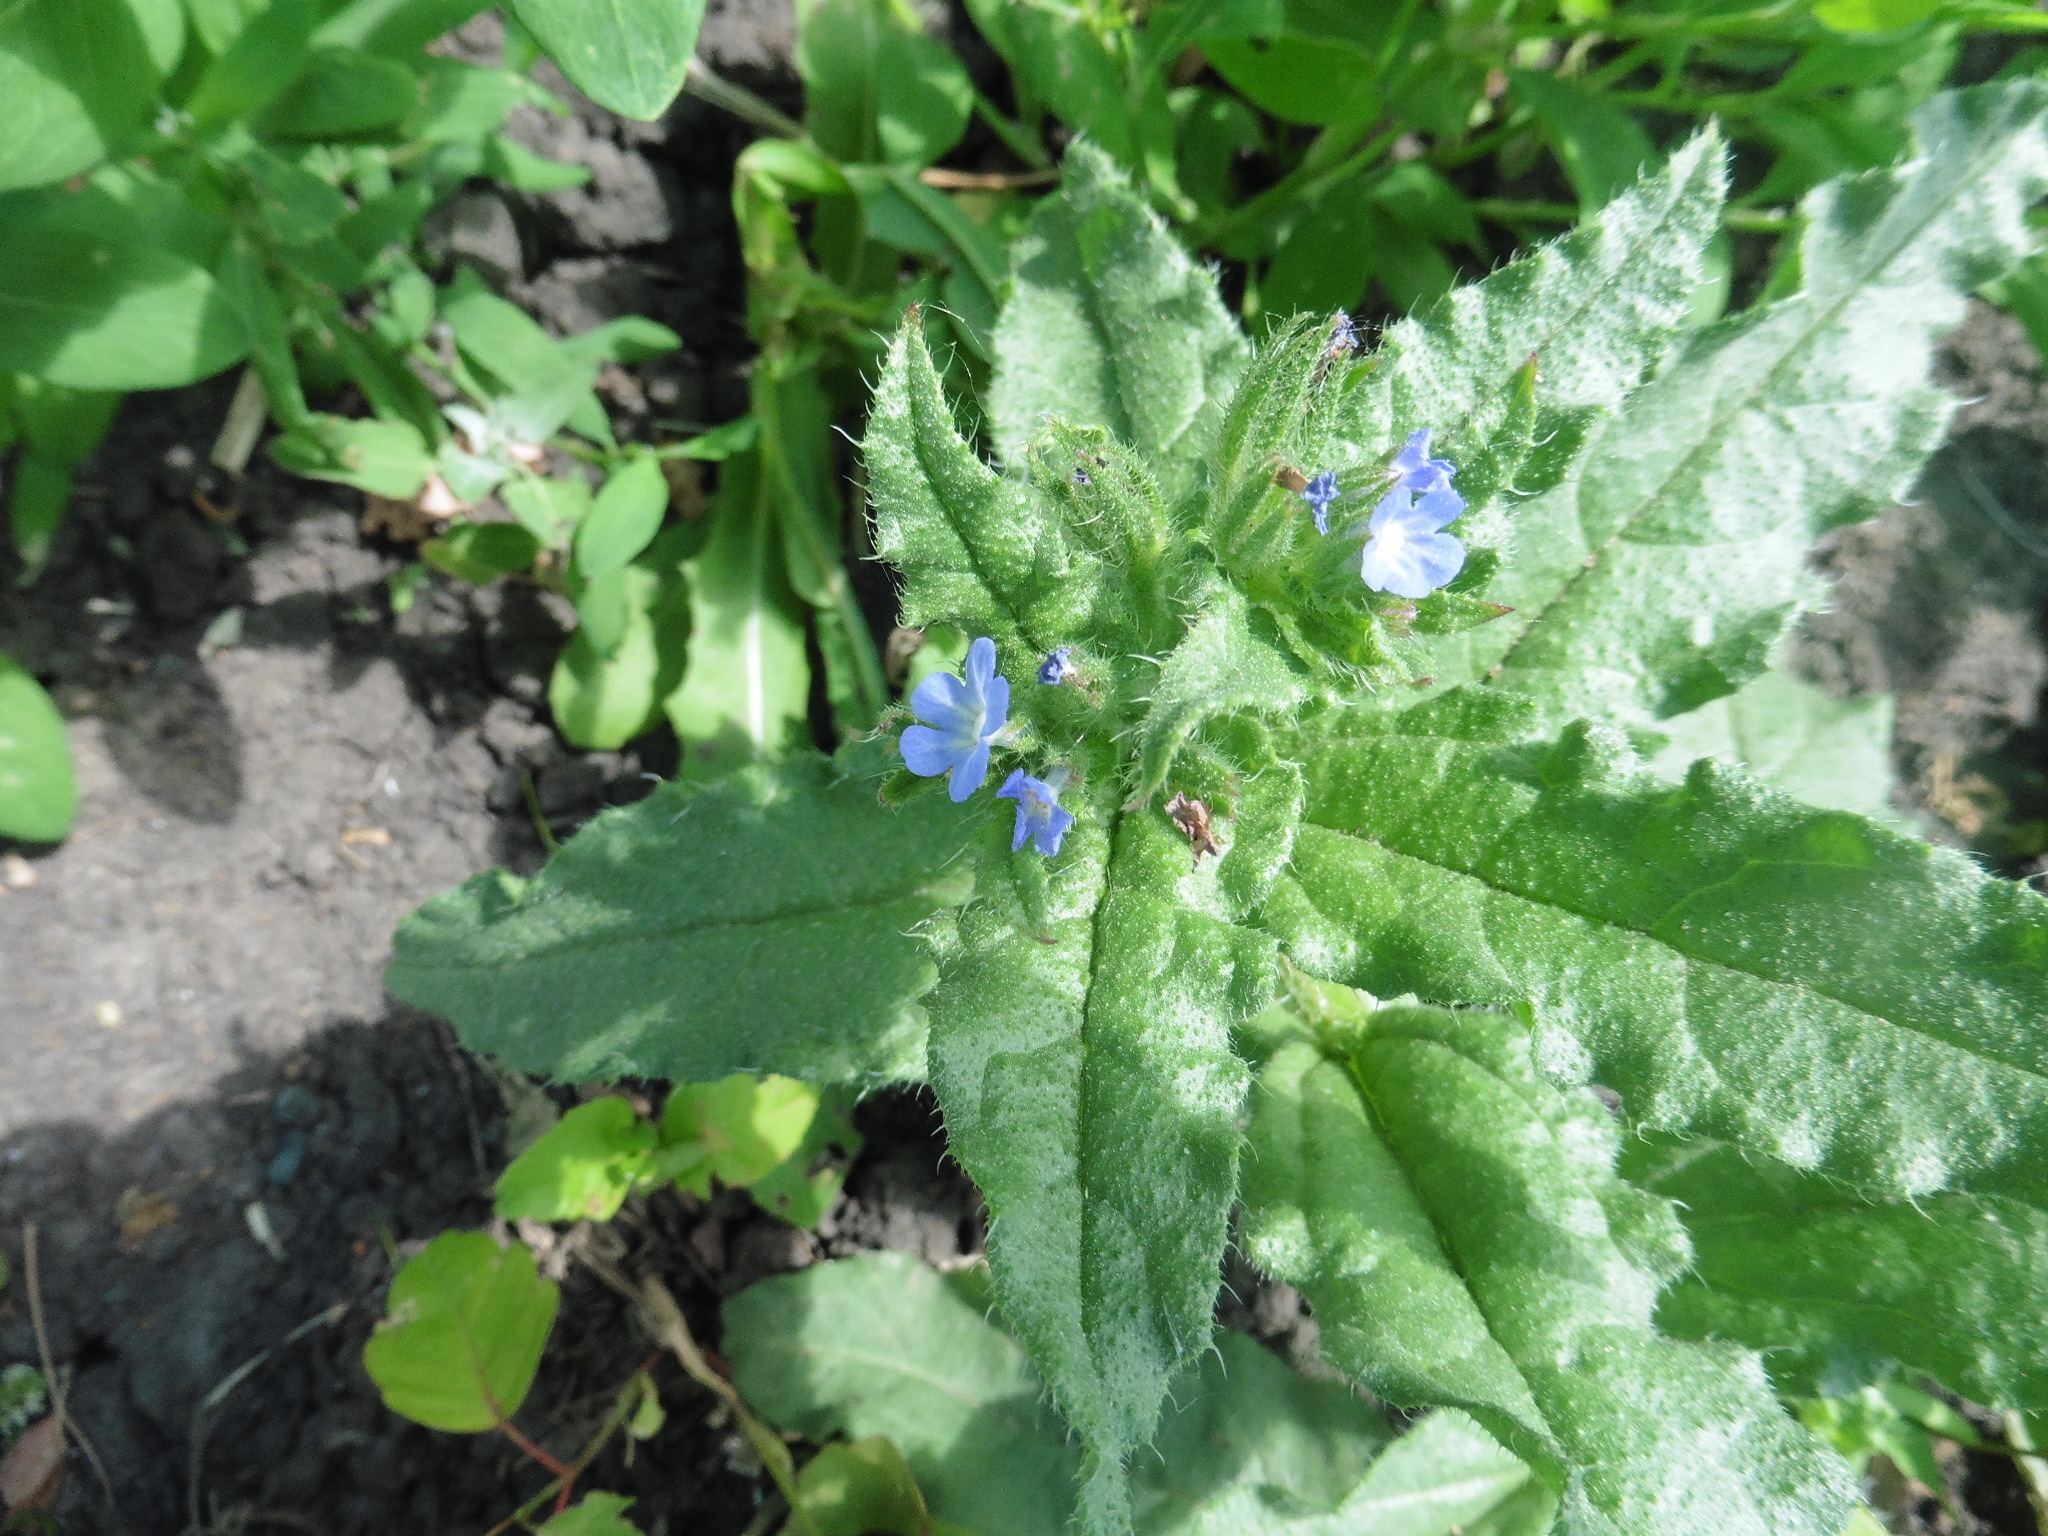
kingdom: Plantae
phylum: Tracheophyta
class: Magnoliopsida
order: Boraginales
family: Boraginaceae
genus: Lycopsis
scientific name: Lycopsis arvensis
